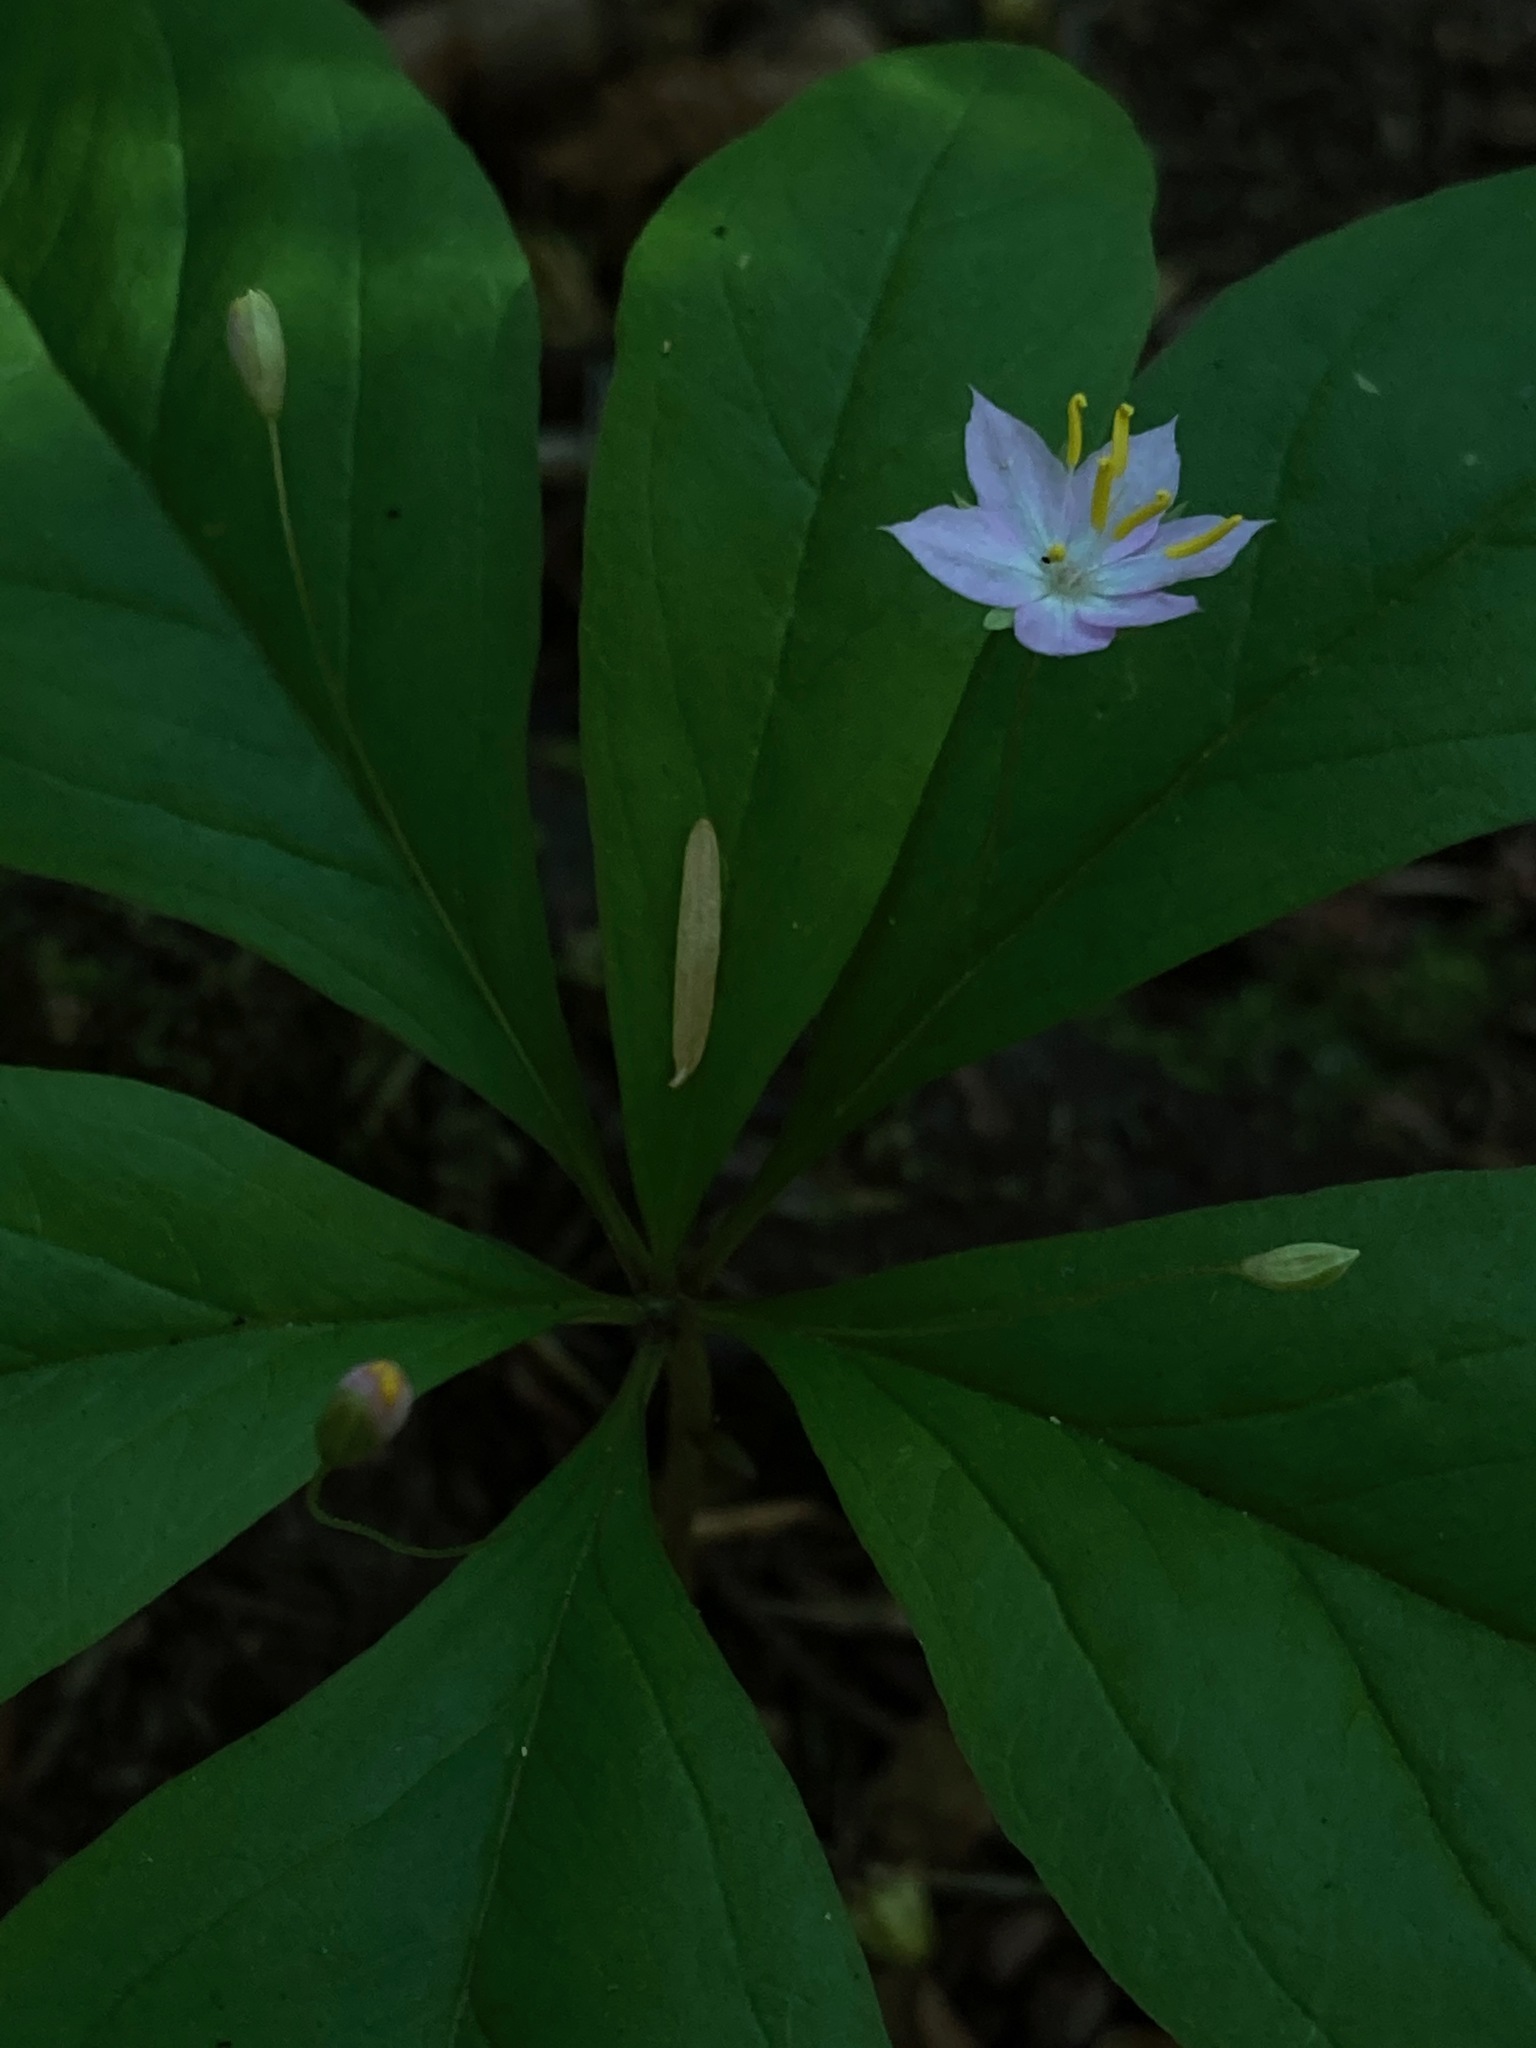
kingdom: Plantae
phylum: Tracheophyta
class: Magnoliopsida
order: Ericales
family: Primulaceae
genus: Lysimachia
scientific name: Lysimachia latifolia
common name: Pacific starflower
